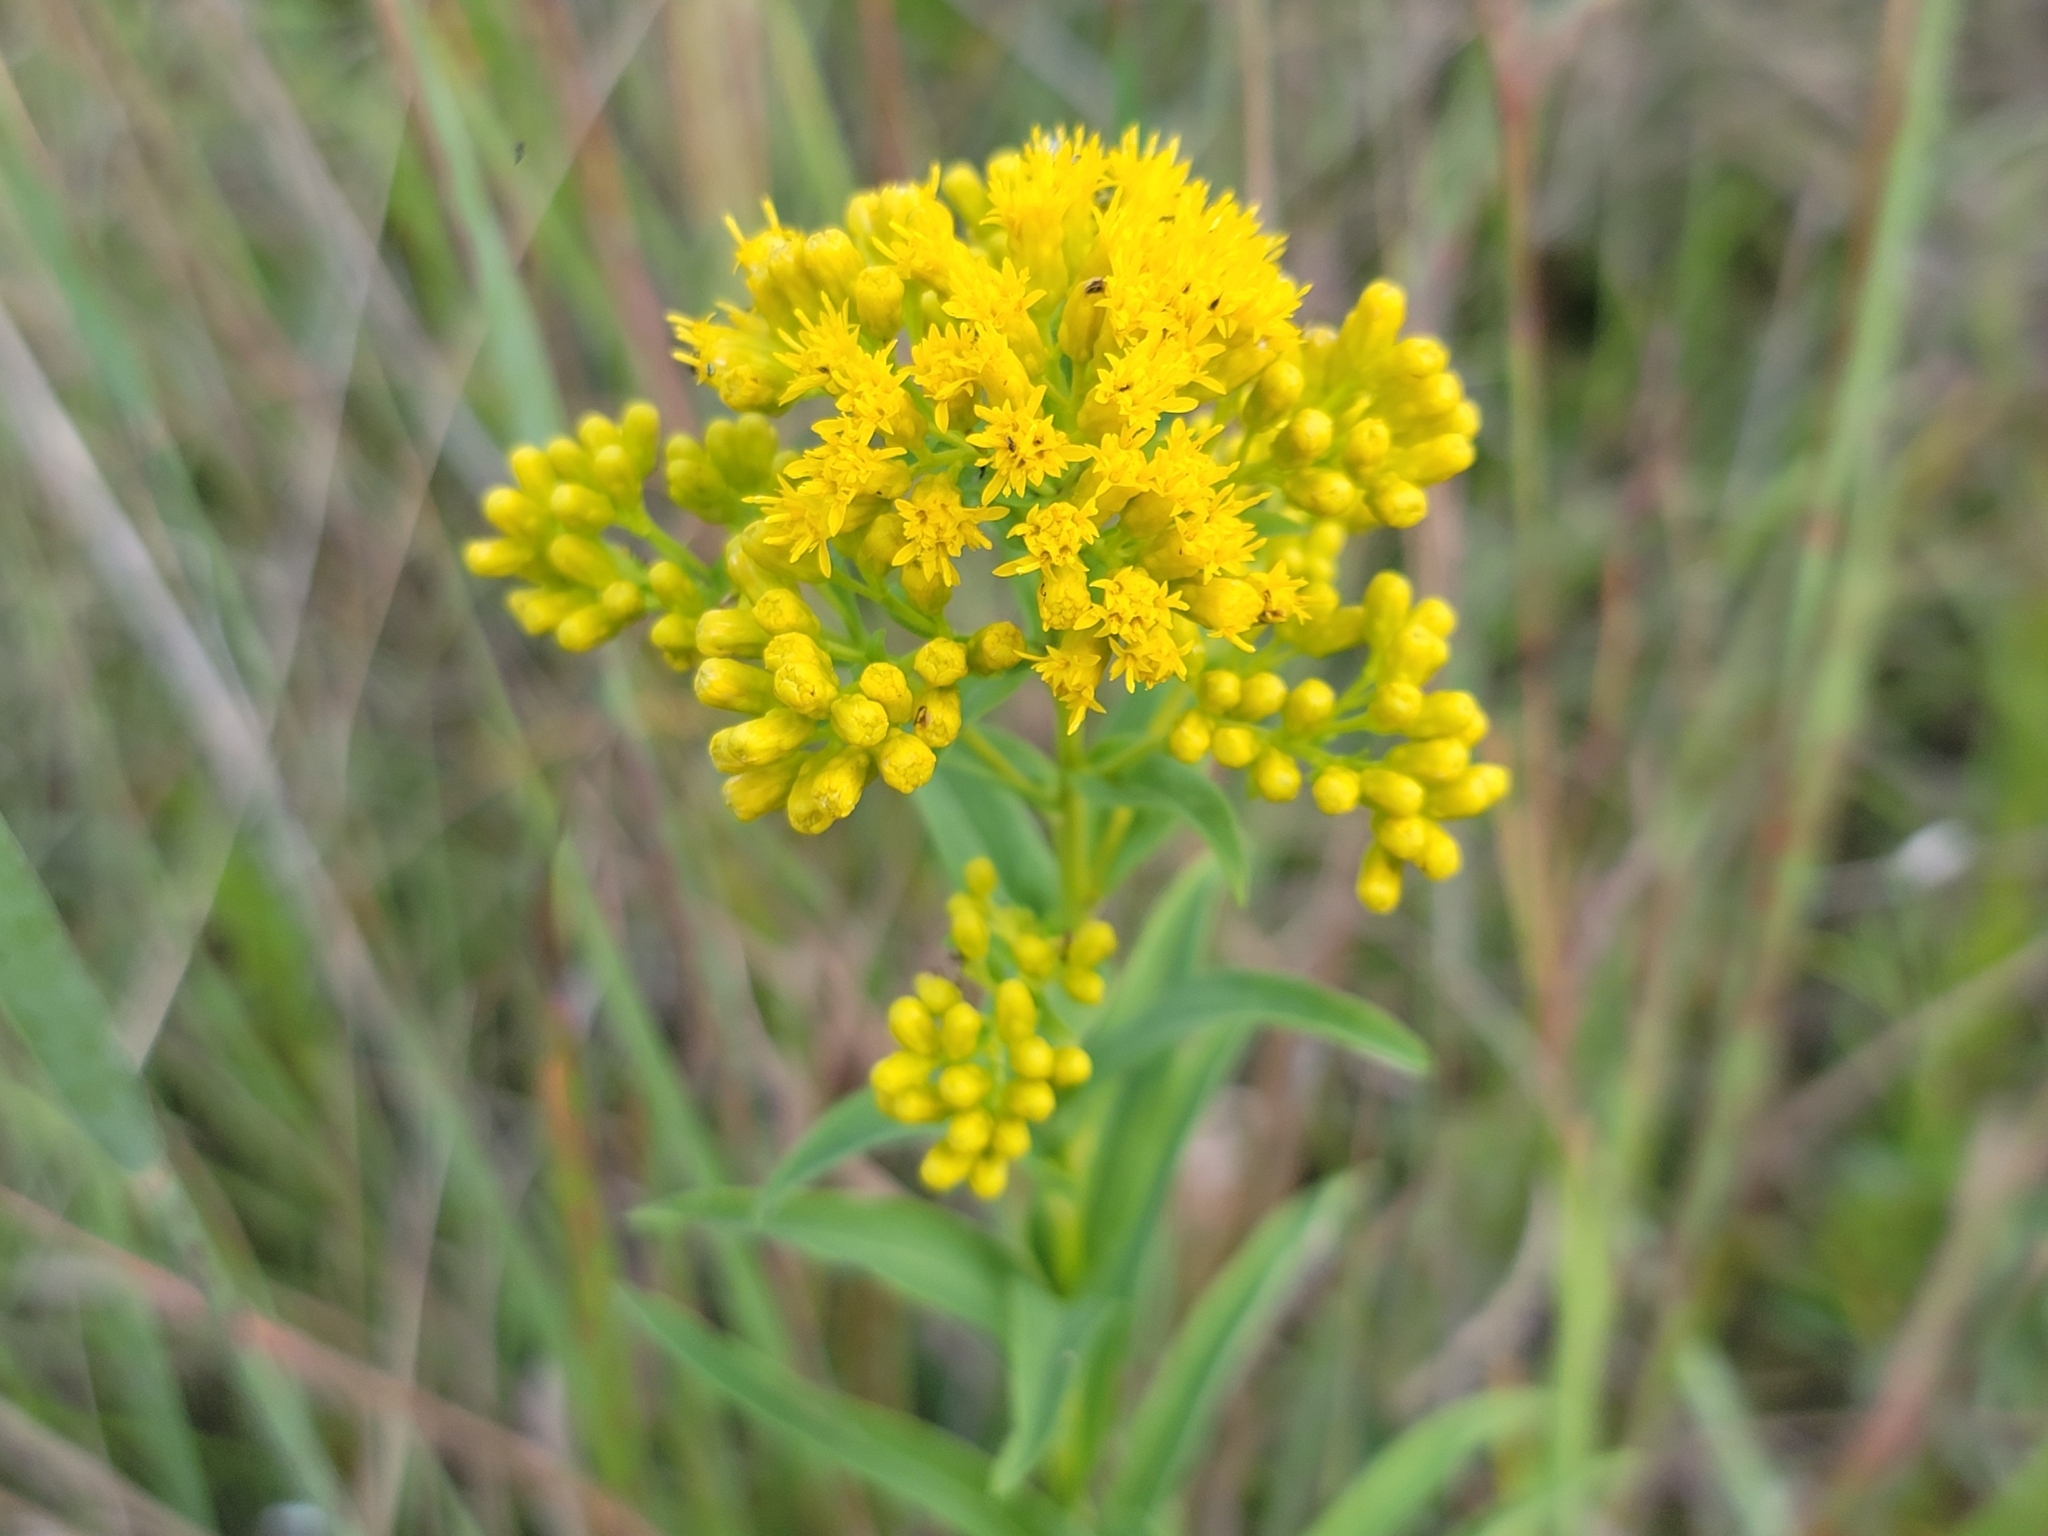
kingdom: Plantae
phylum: Tracheophyta
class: Magnoliopsida
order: Asterales
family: Asteraceae
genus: Solidago
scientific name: Solidago riddellii
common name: Riddell's goldenrod
